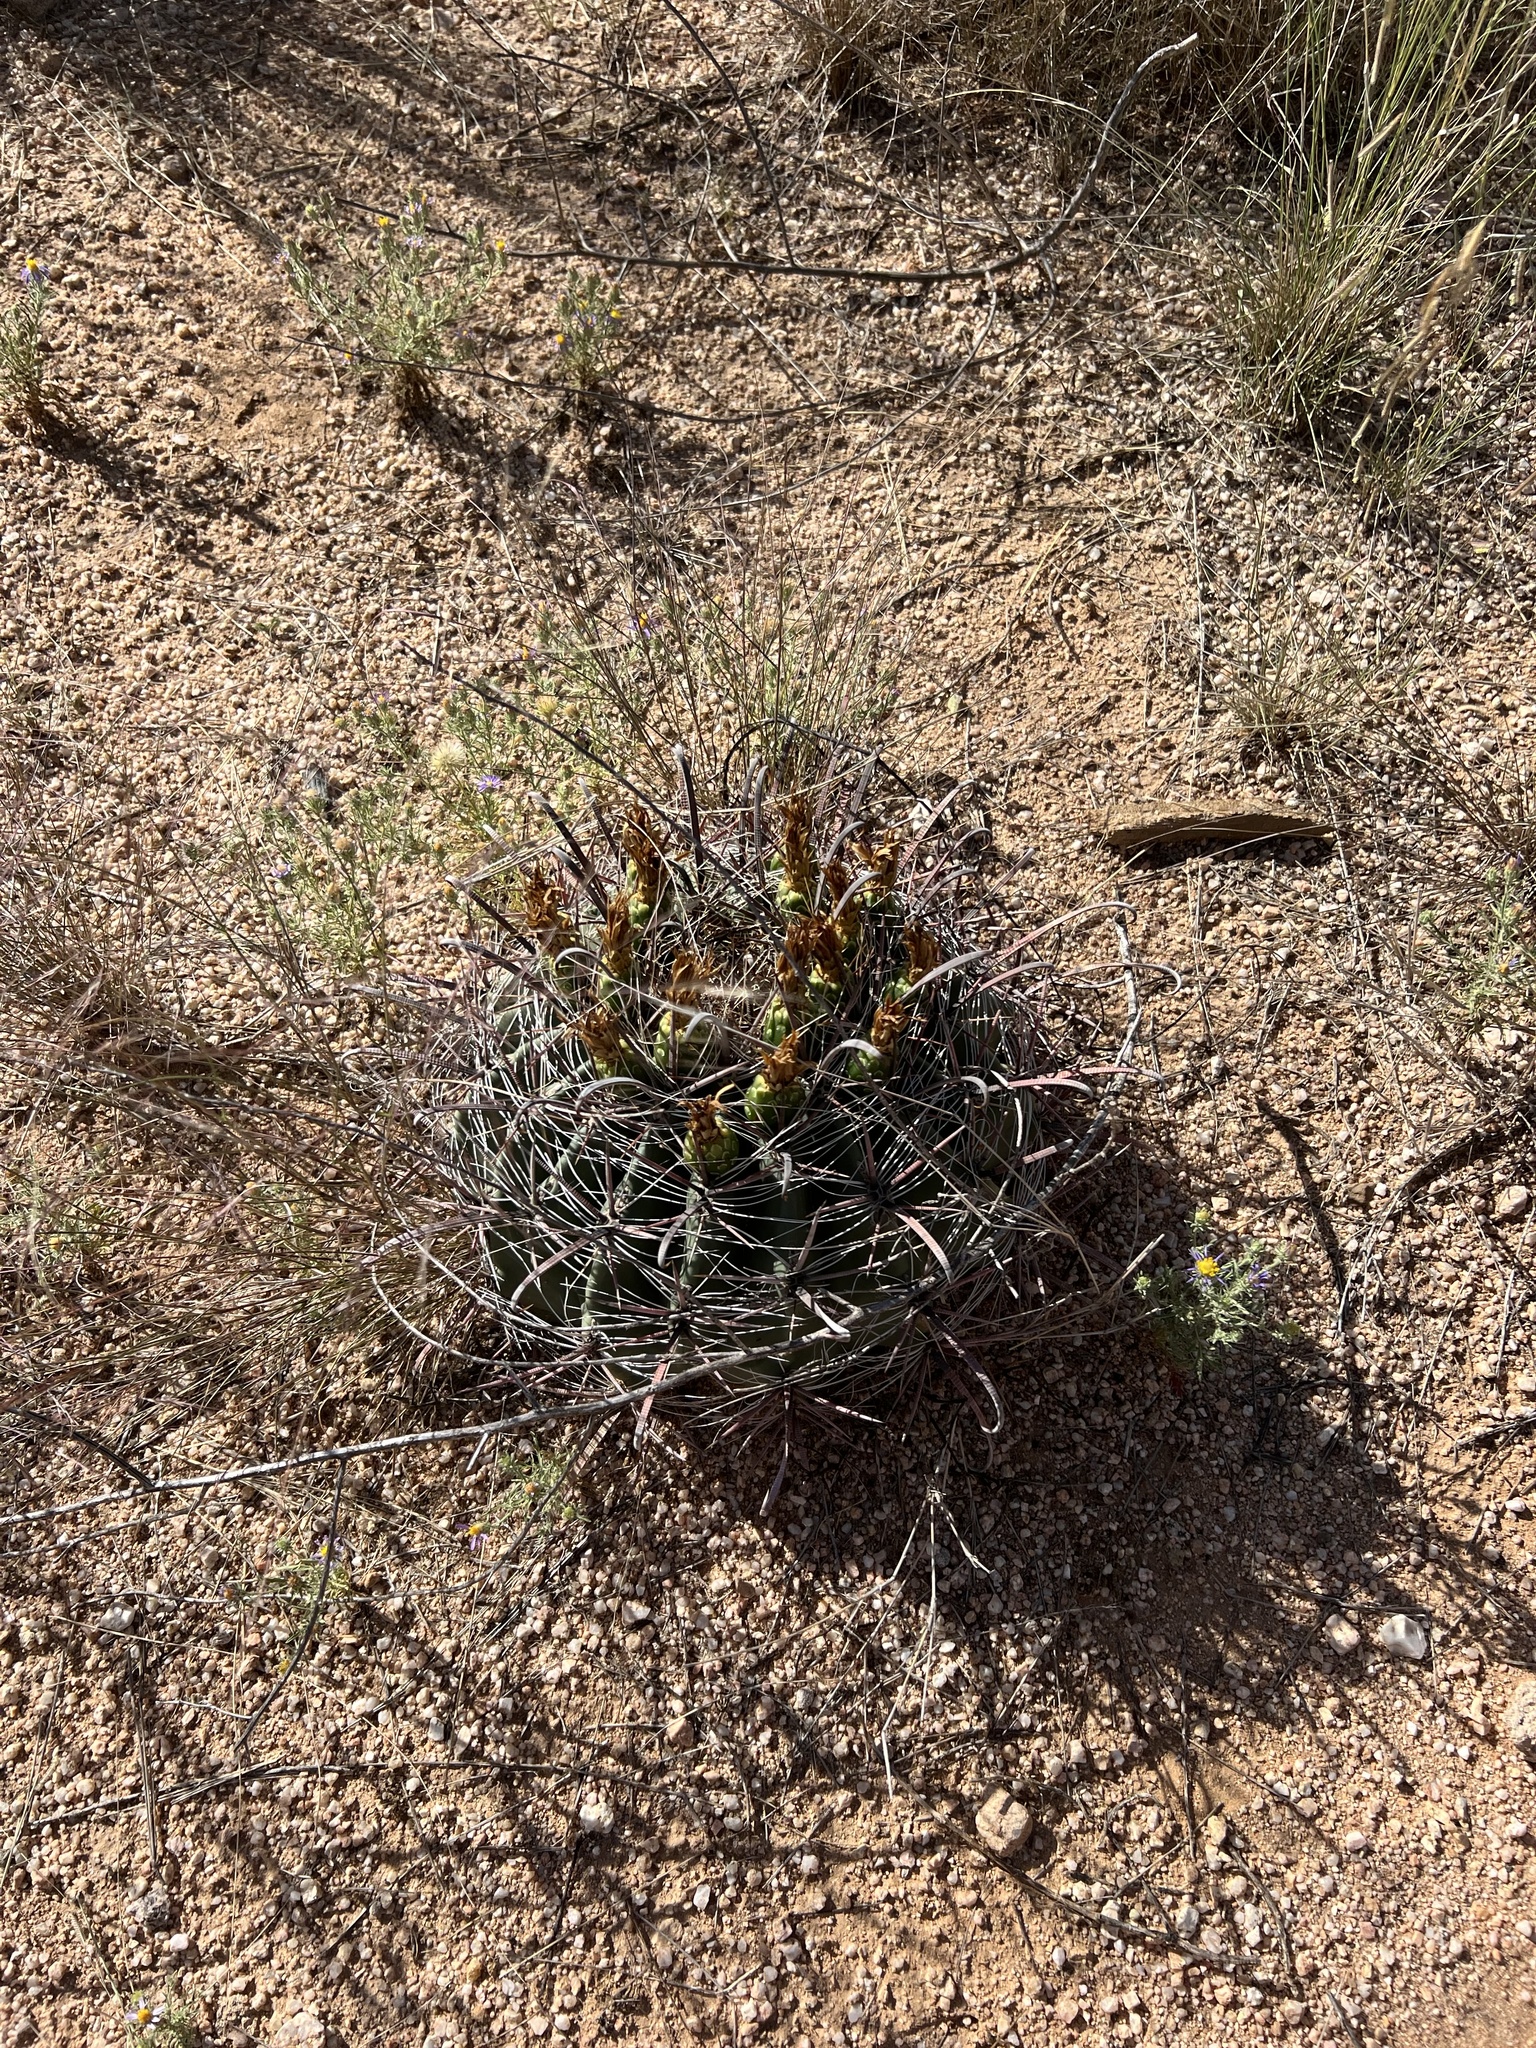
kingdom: Plantae
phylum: Tracheophyta
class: Magnoliopsida
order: Caryophyllales
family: Cactaceae
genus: Ferocactus
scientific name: Ferocactus wislizeni
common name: Candy barrel cactus
